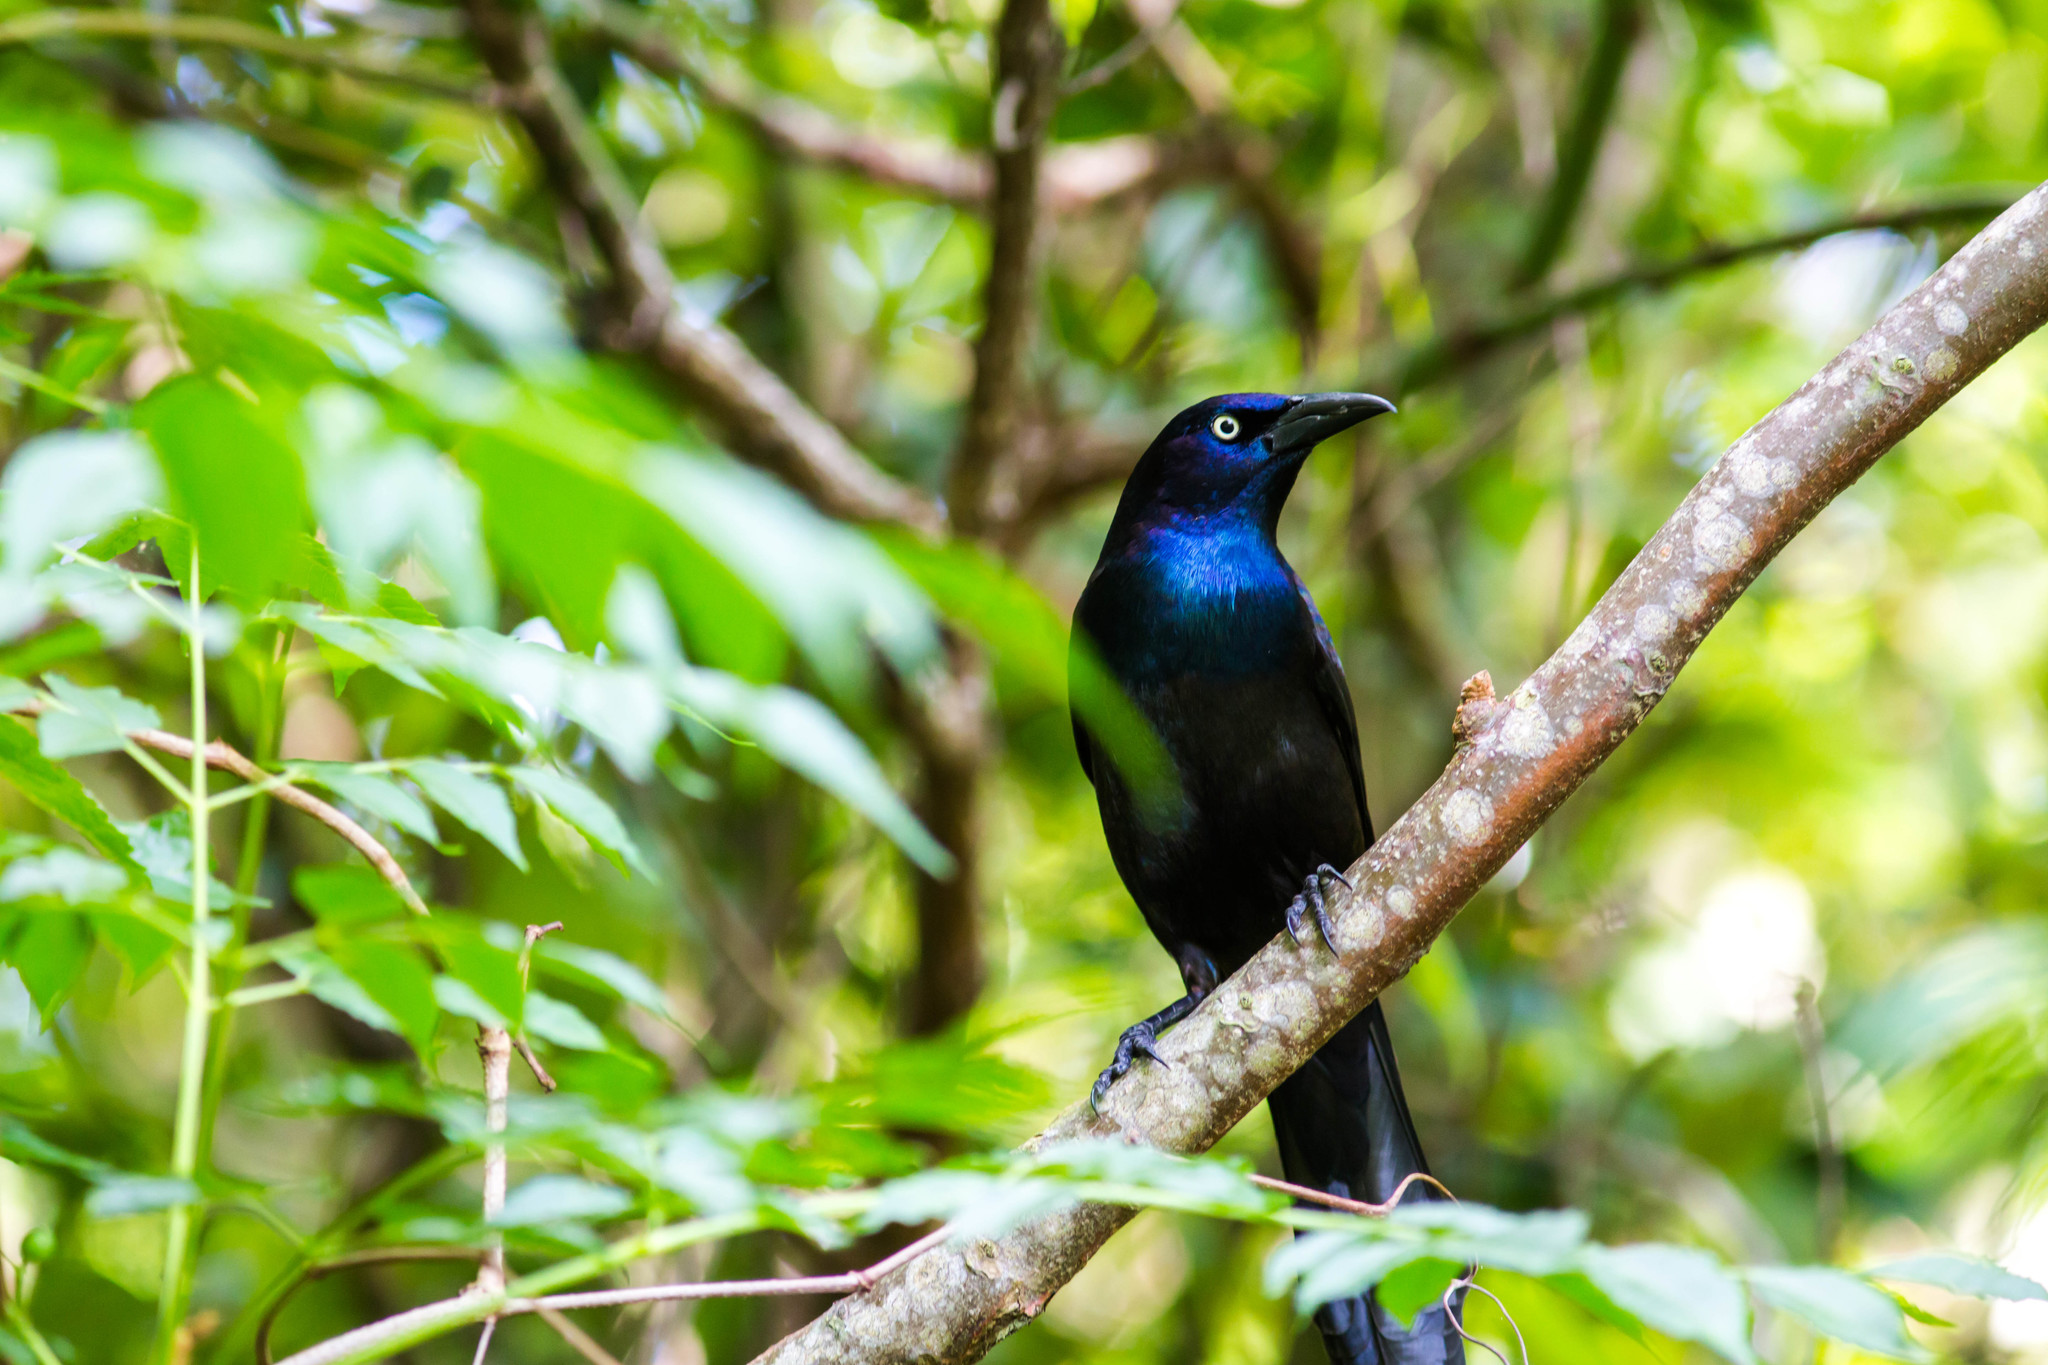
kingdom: Animalia
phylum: Chordata
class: Aves
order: Passeriformes
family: Icteridae
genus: Quiscalus
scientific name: Quiscalus quiscula
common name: Common grackle
